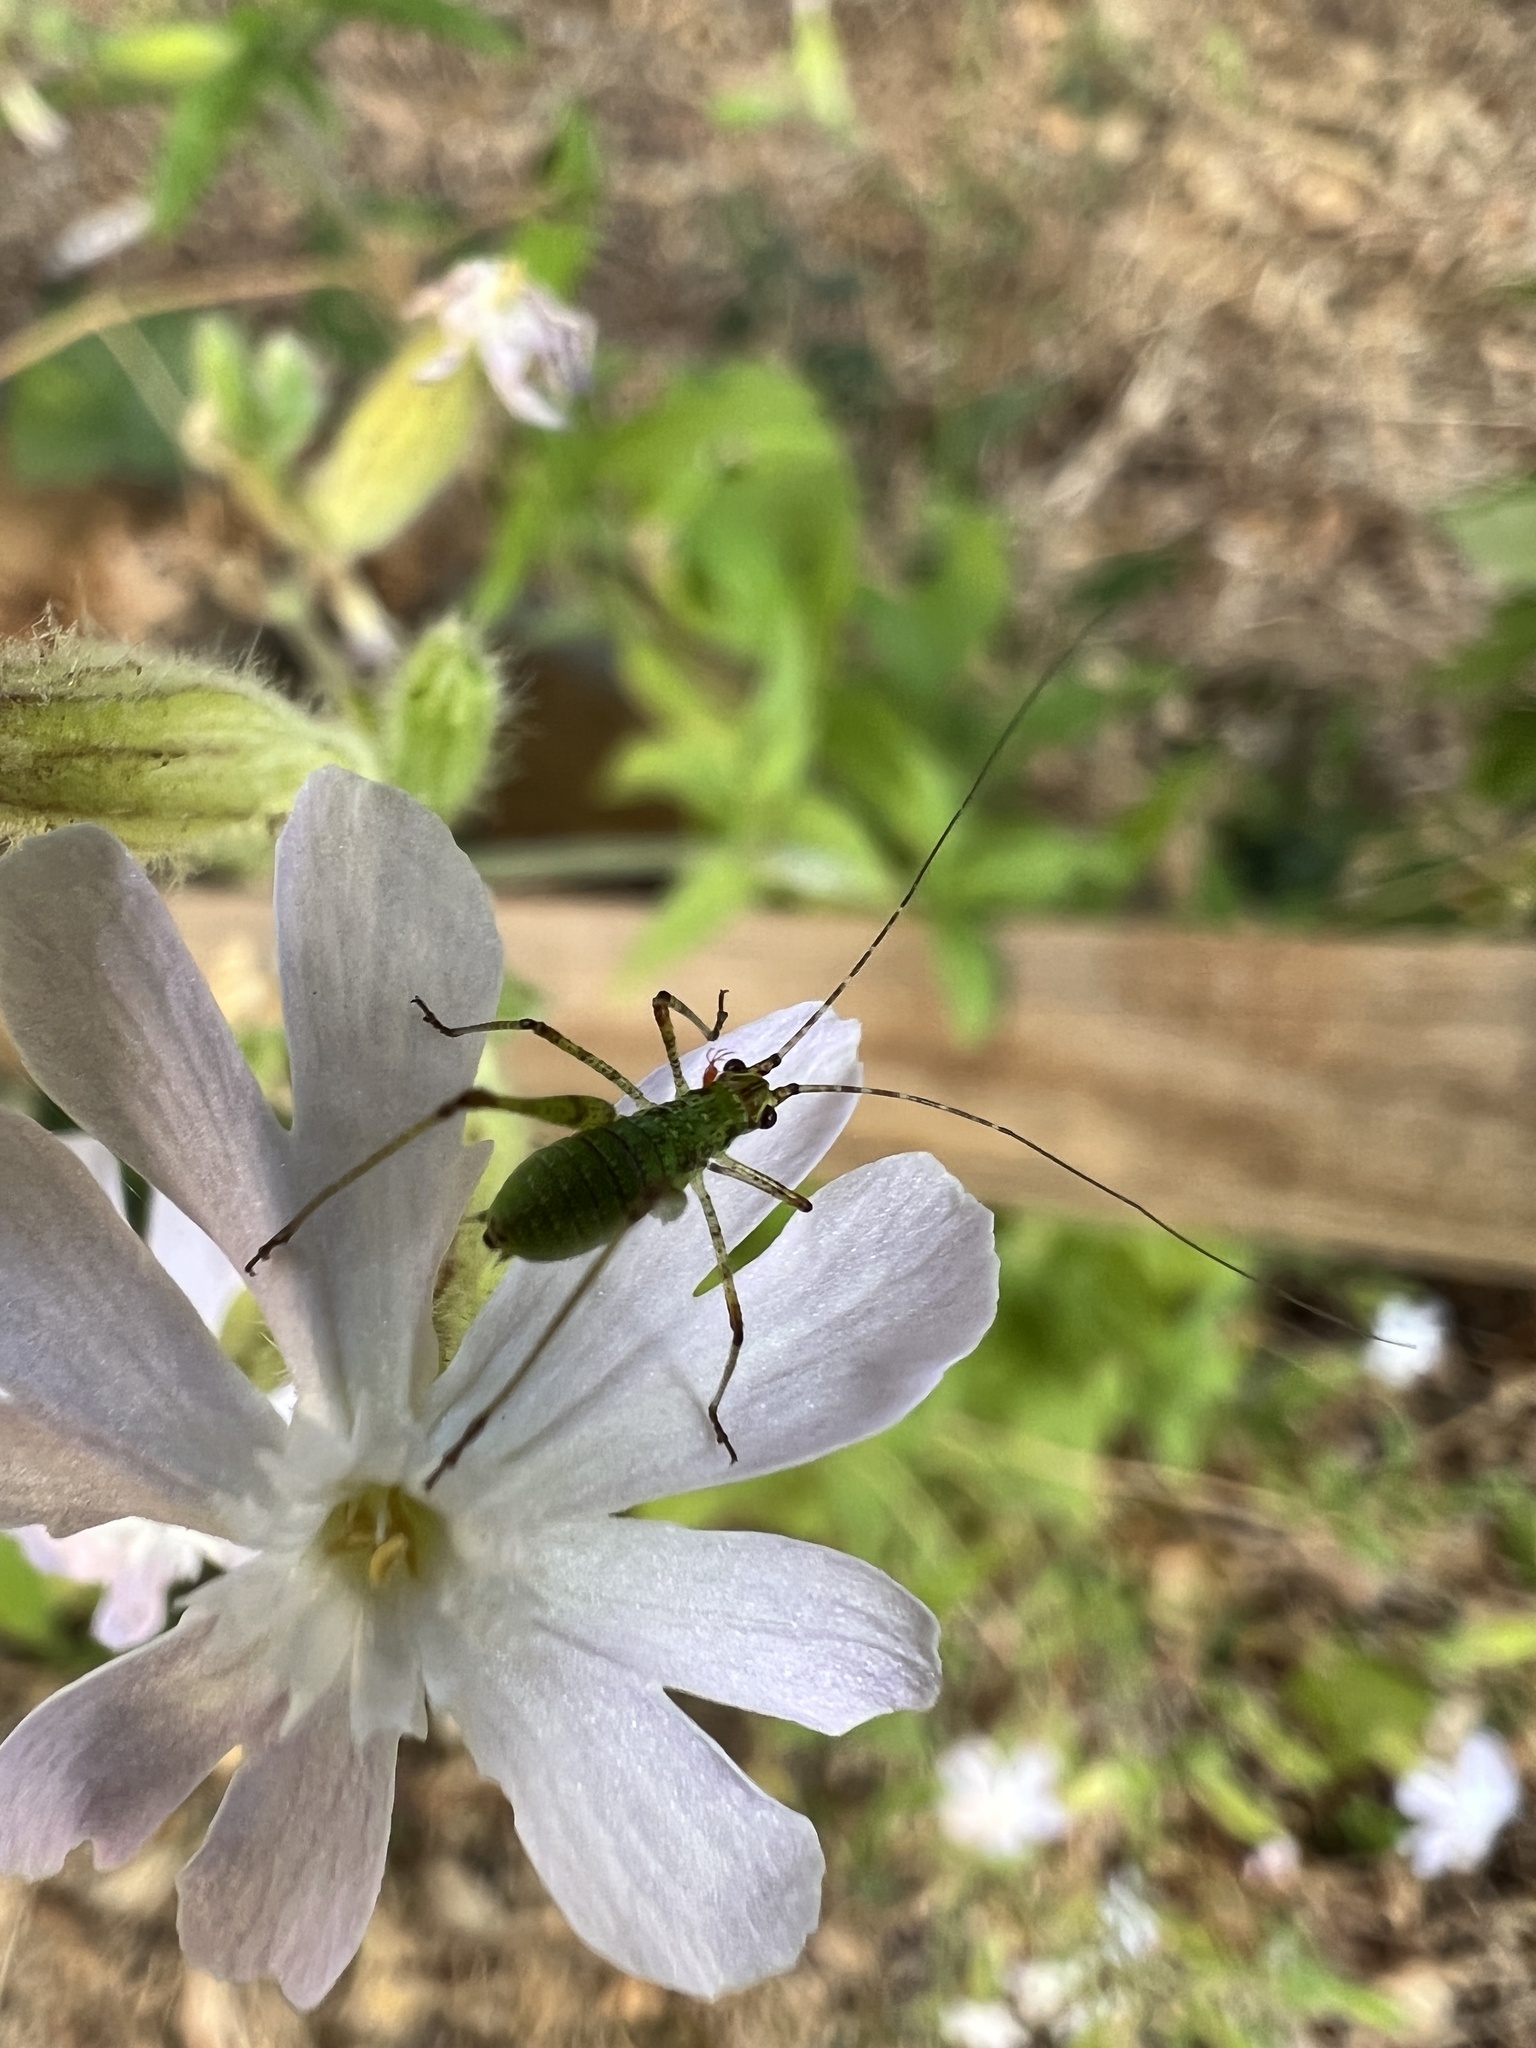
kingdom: Animalia
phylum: Arthropoda
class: Insecta
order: Orthoptera
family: Tettigoniidae
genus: Phaneroptera
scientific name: Phaneroptera nana
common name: Southern sickle bush-cricket
